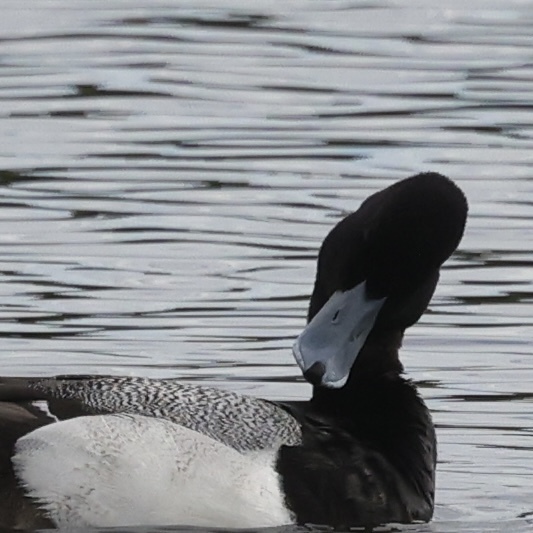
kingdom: Animalia
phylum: Chordata
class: Aves
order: Anseriformes
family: Anatidae
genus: Aythya
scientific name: Aythya marila
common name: Greater scaup
